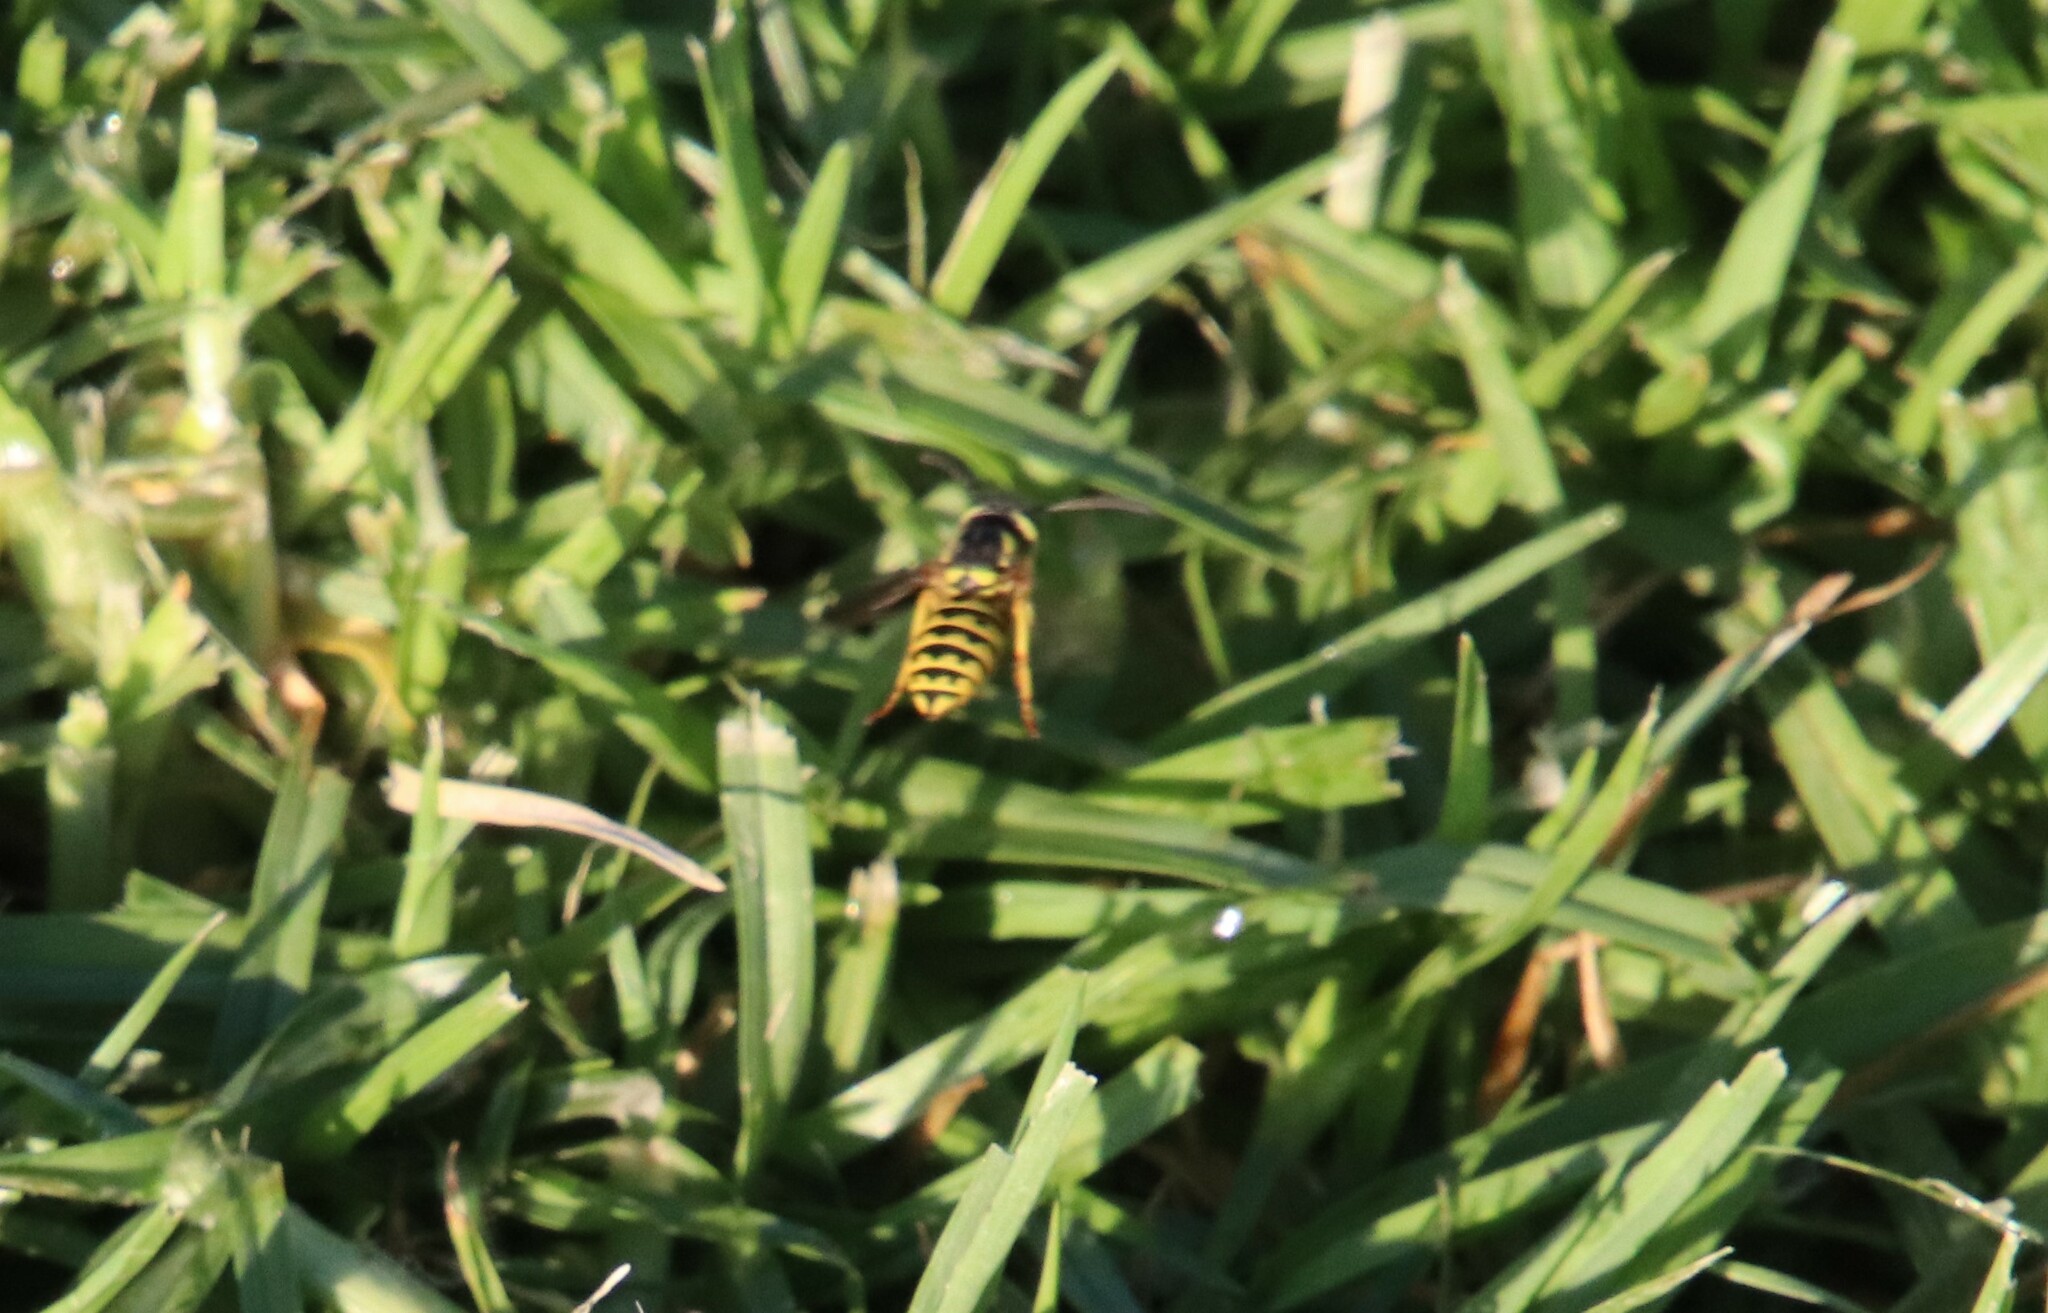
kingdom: Animalia
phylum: Arthropoda
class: Insecta
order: Hymenoptera
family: Vespidae
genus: Vespula
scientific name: Vespula pensylvanica
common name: Western yellowjacket
